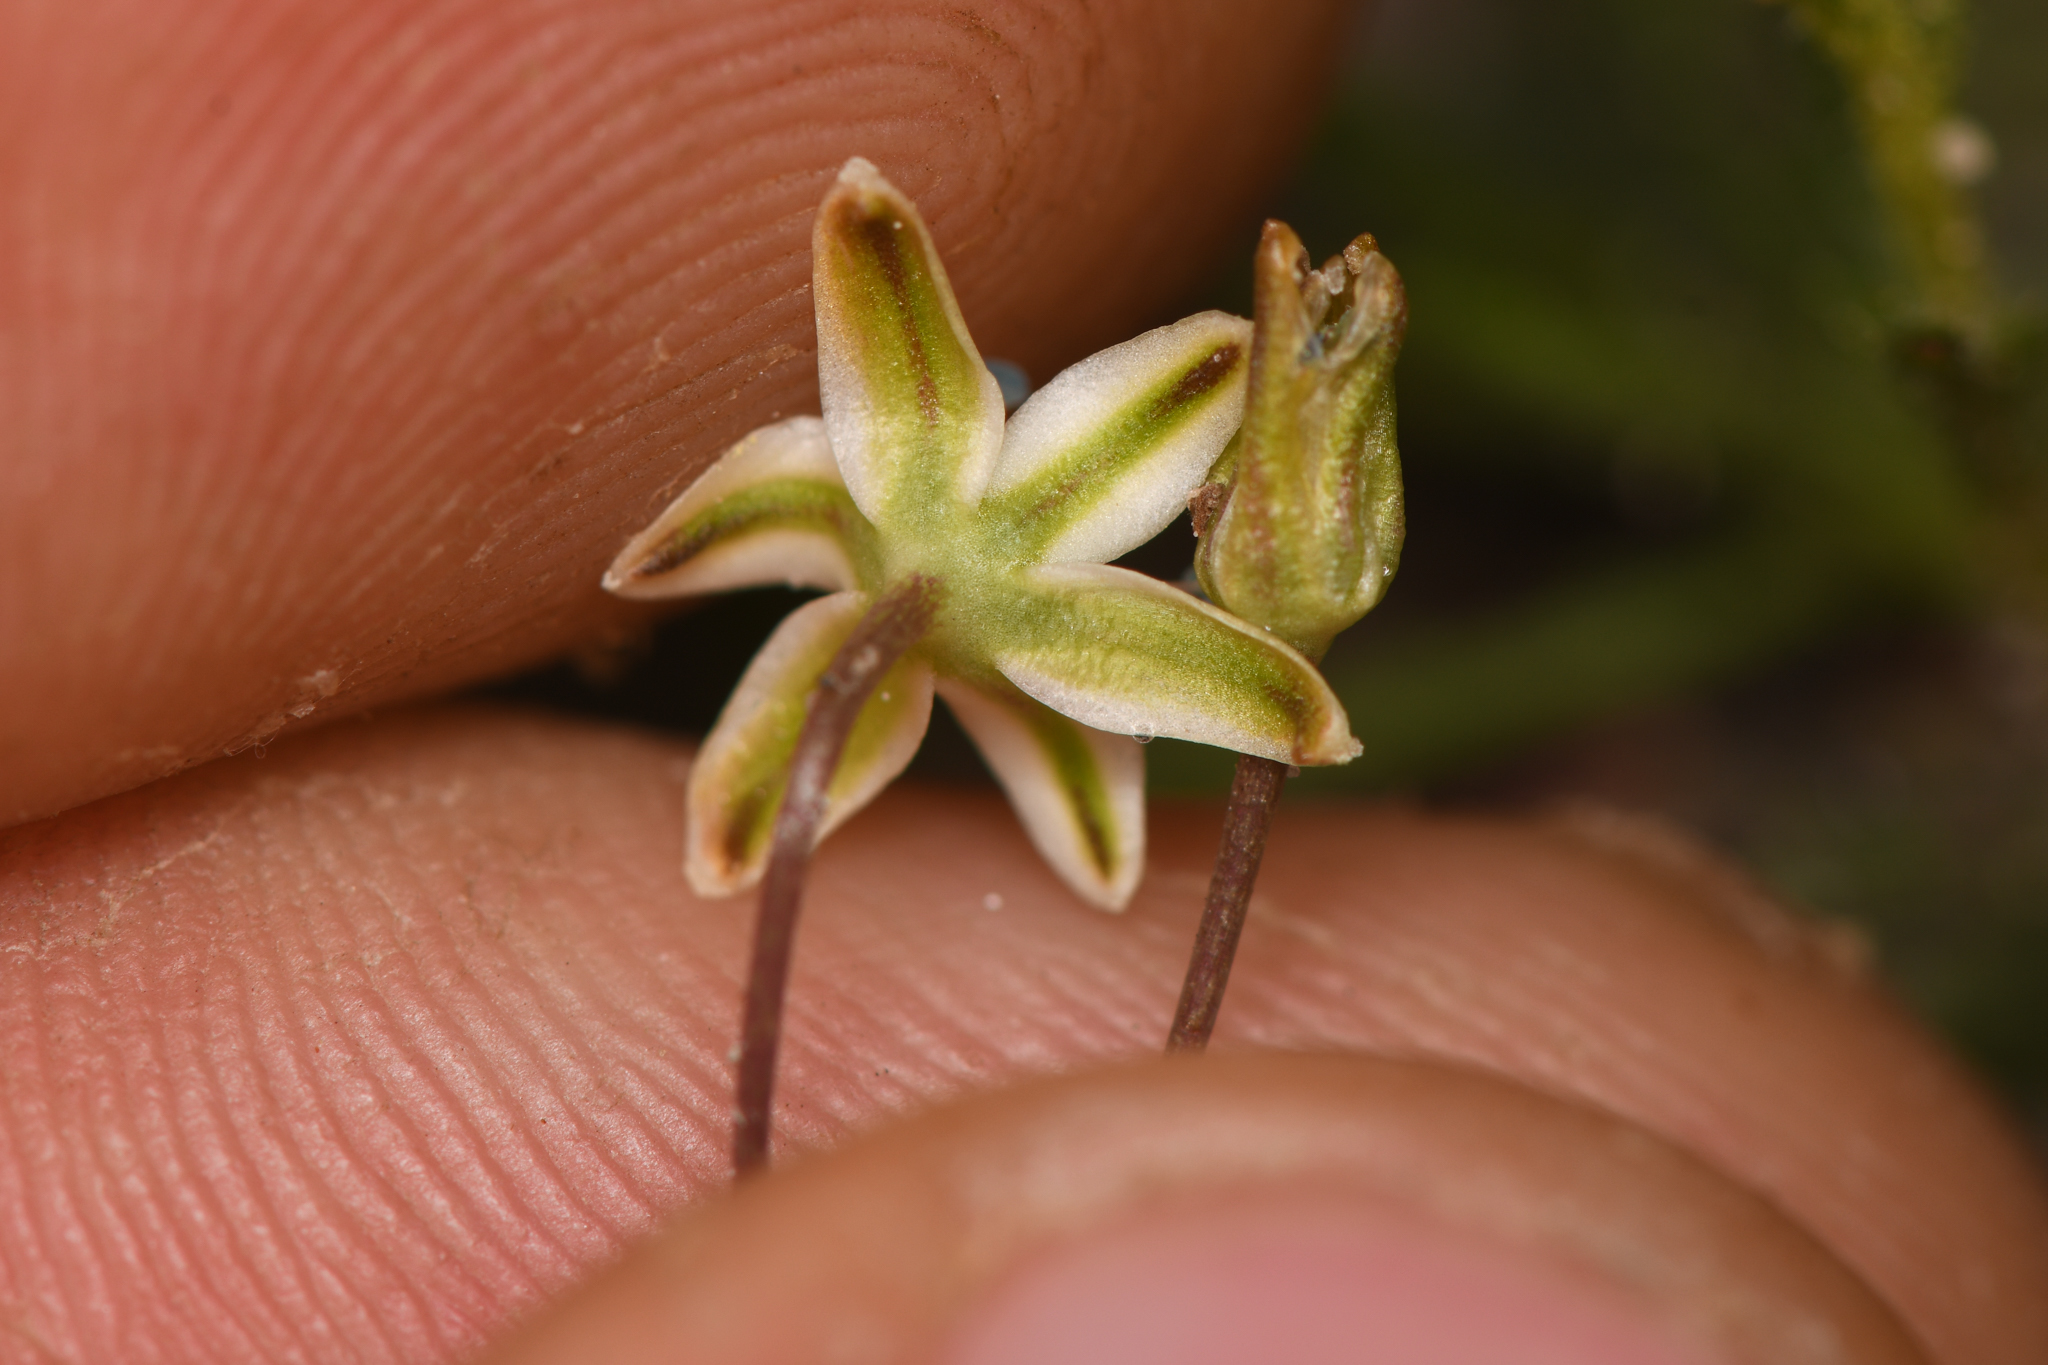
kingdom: Plantae
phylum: Tracheophyta
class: Liliopsida
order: Asparagales
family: Asparagaceae
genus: Muilla
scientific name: Muilla maritima
